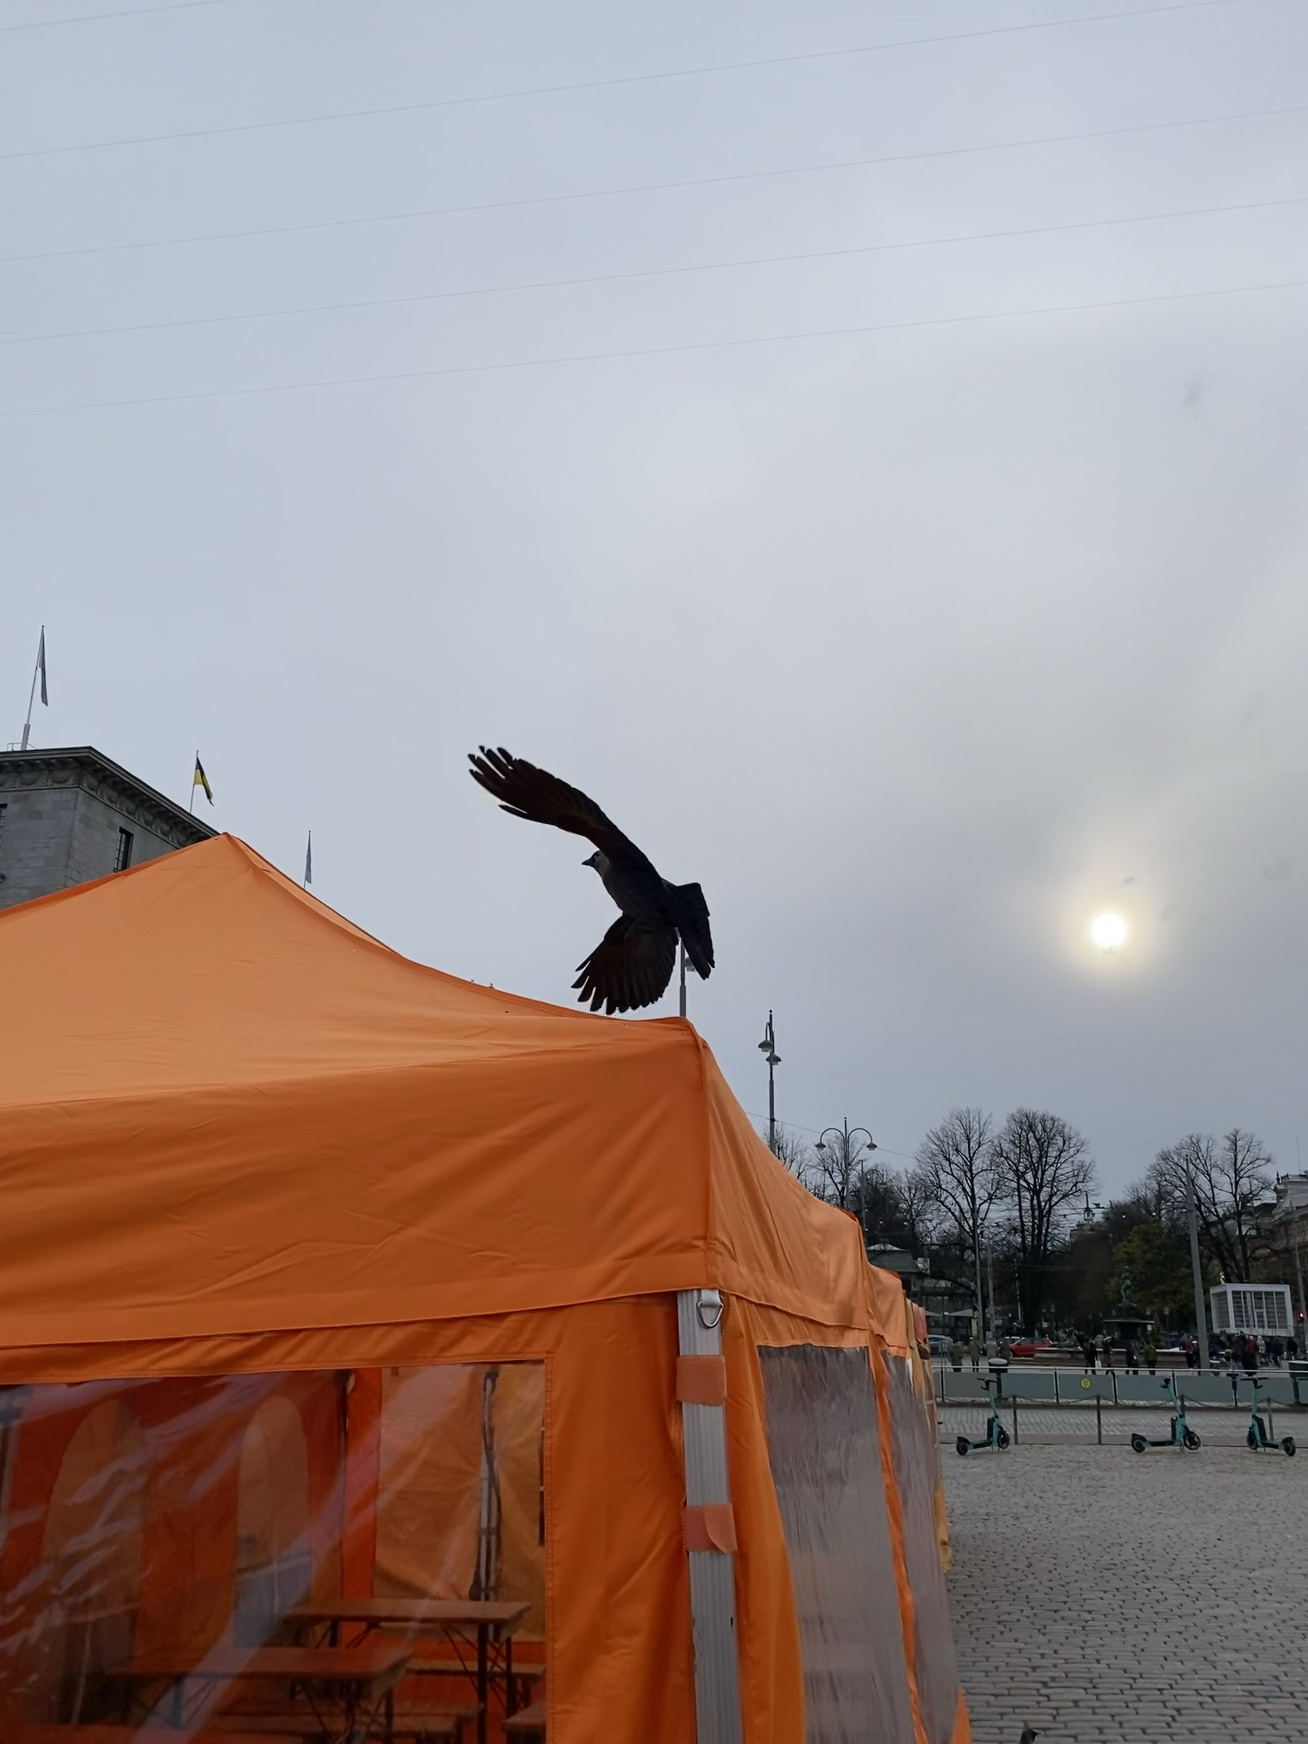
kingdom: Animalia
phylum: Chordata
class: Aves
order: Passeriformes
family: Corvidae
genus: Coloeus
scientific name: Coloeus monedula
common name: Western jackdaw
